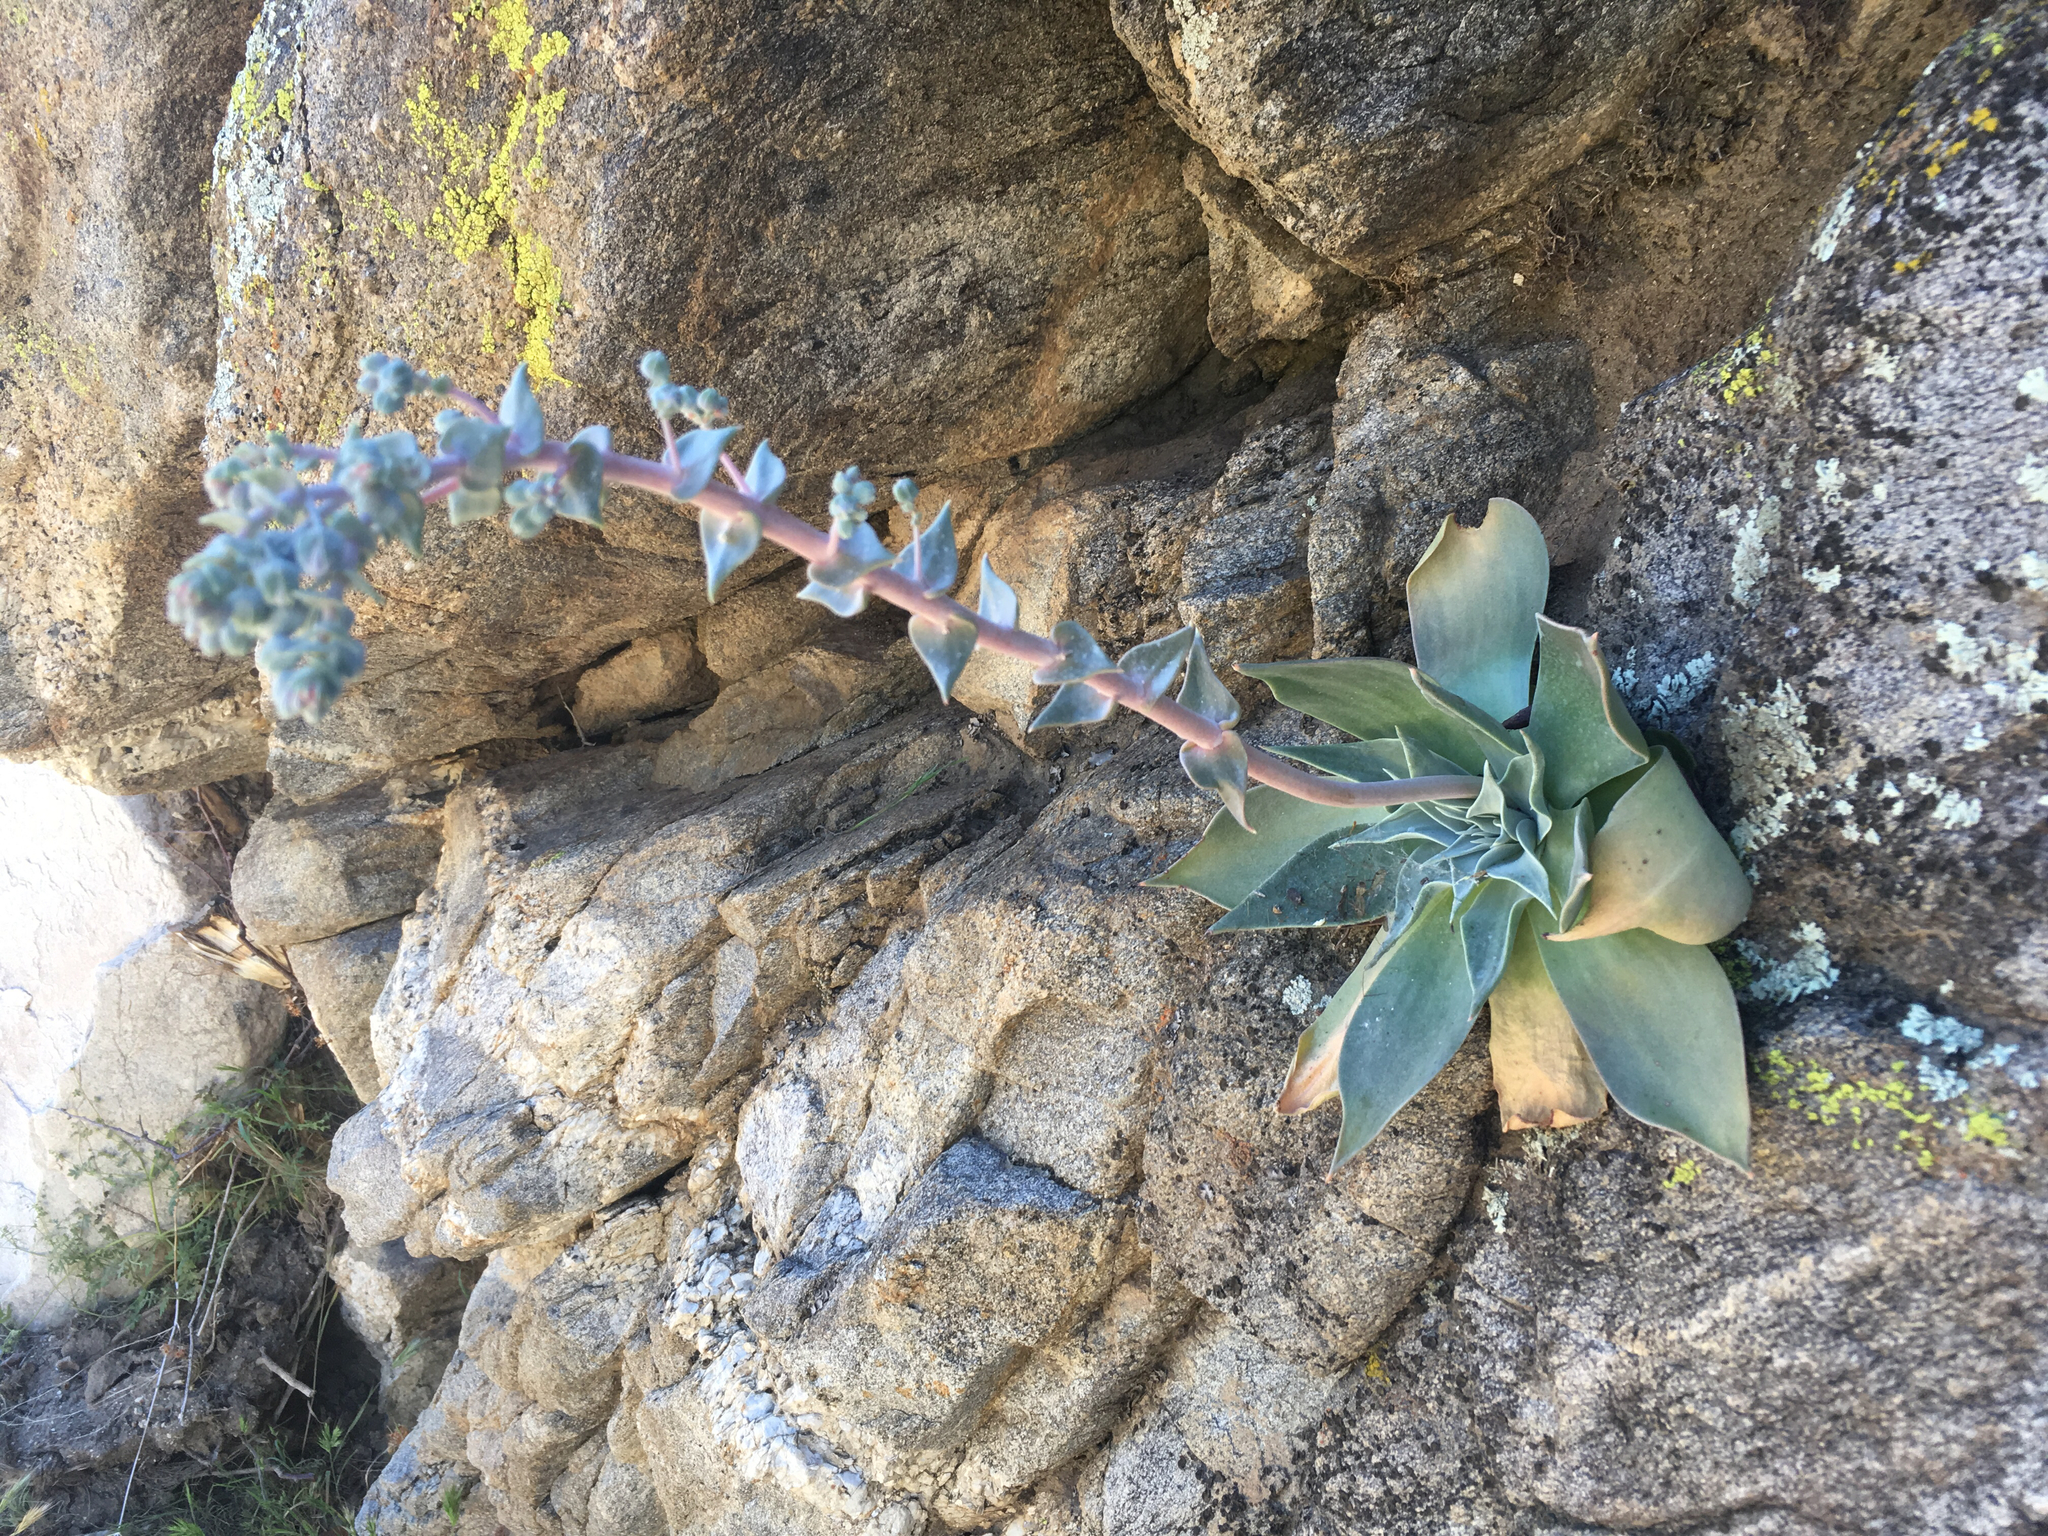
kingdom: Plantae
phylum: Tracheophyta
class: Magnoliopsida
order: Saxifragales
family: Crassulaceae
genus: Dudleya
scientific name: Dudleya arizonica
